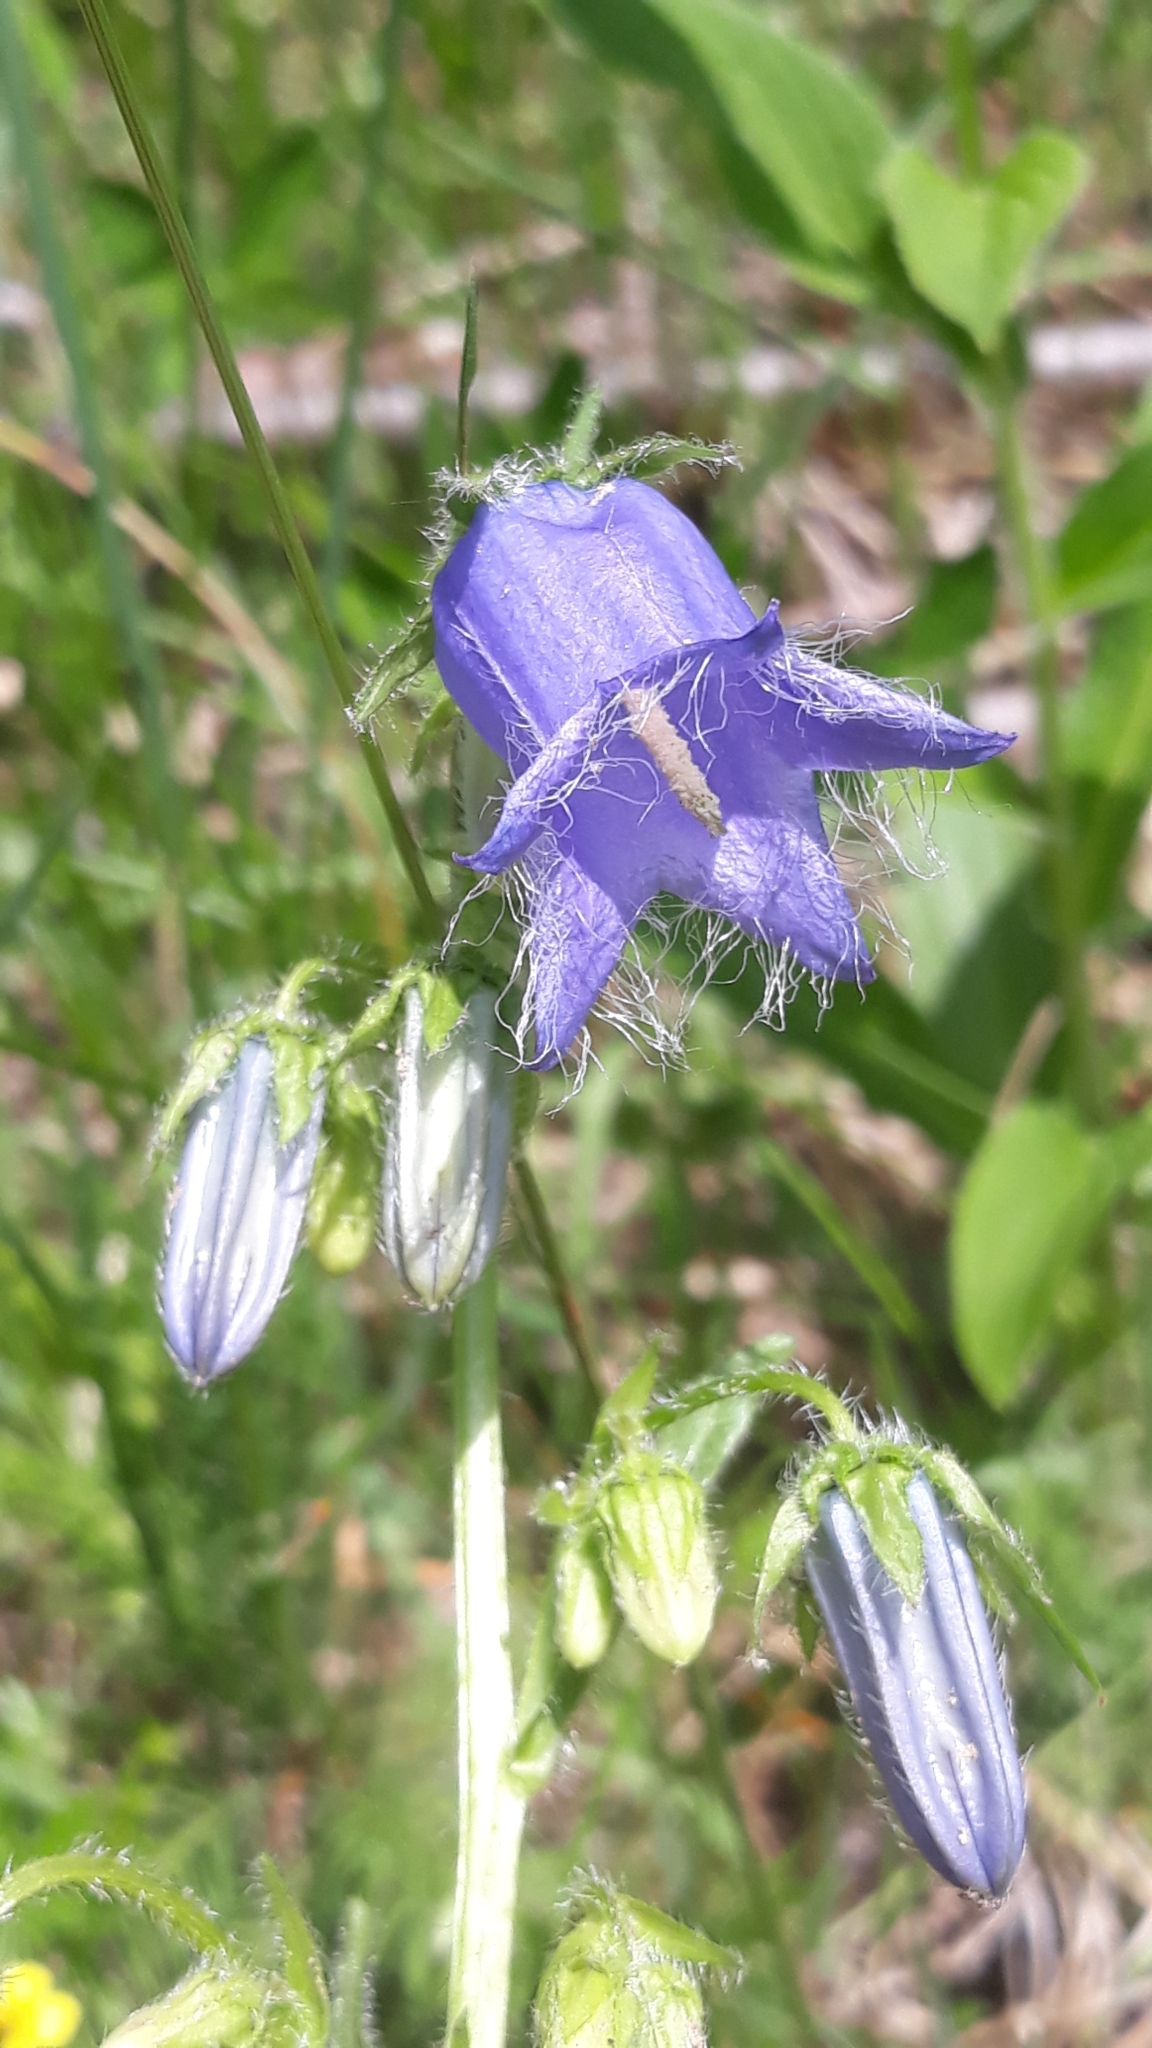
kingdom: Plantae
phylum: Tracheophyta
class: Magnoliopsida
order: Asterales
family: Campanulaceae
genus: Campanula
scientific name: Campanula barbata
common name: Bearded bellflower
